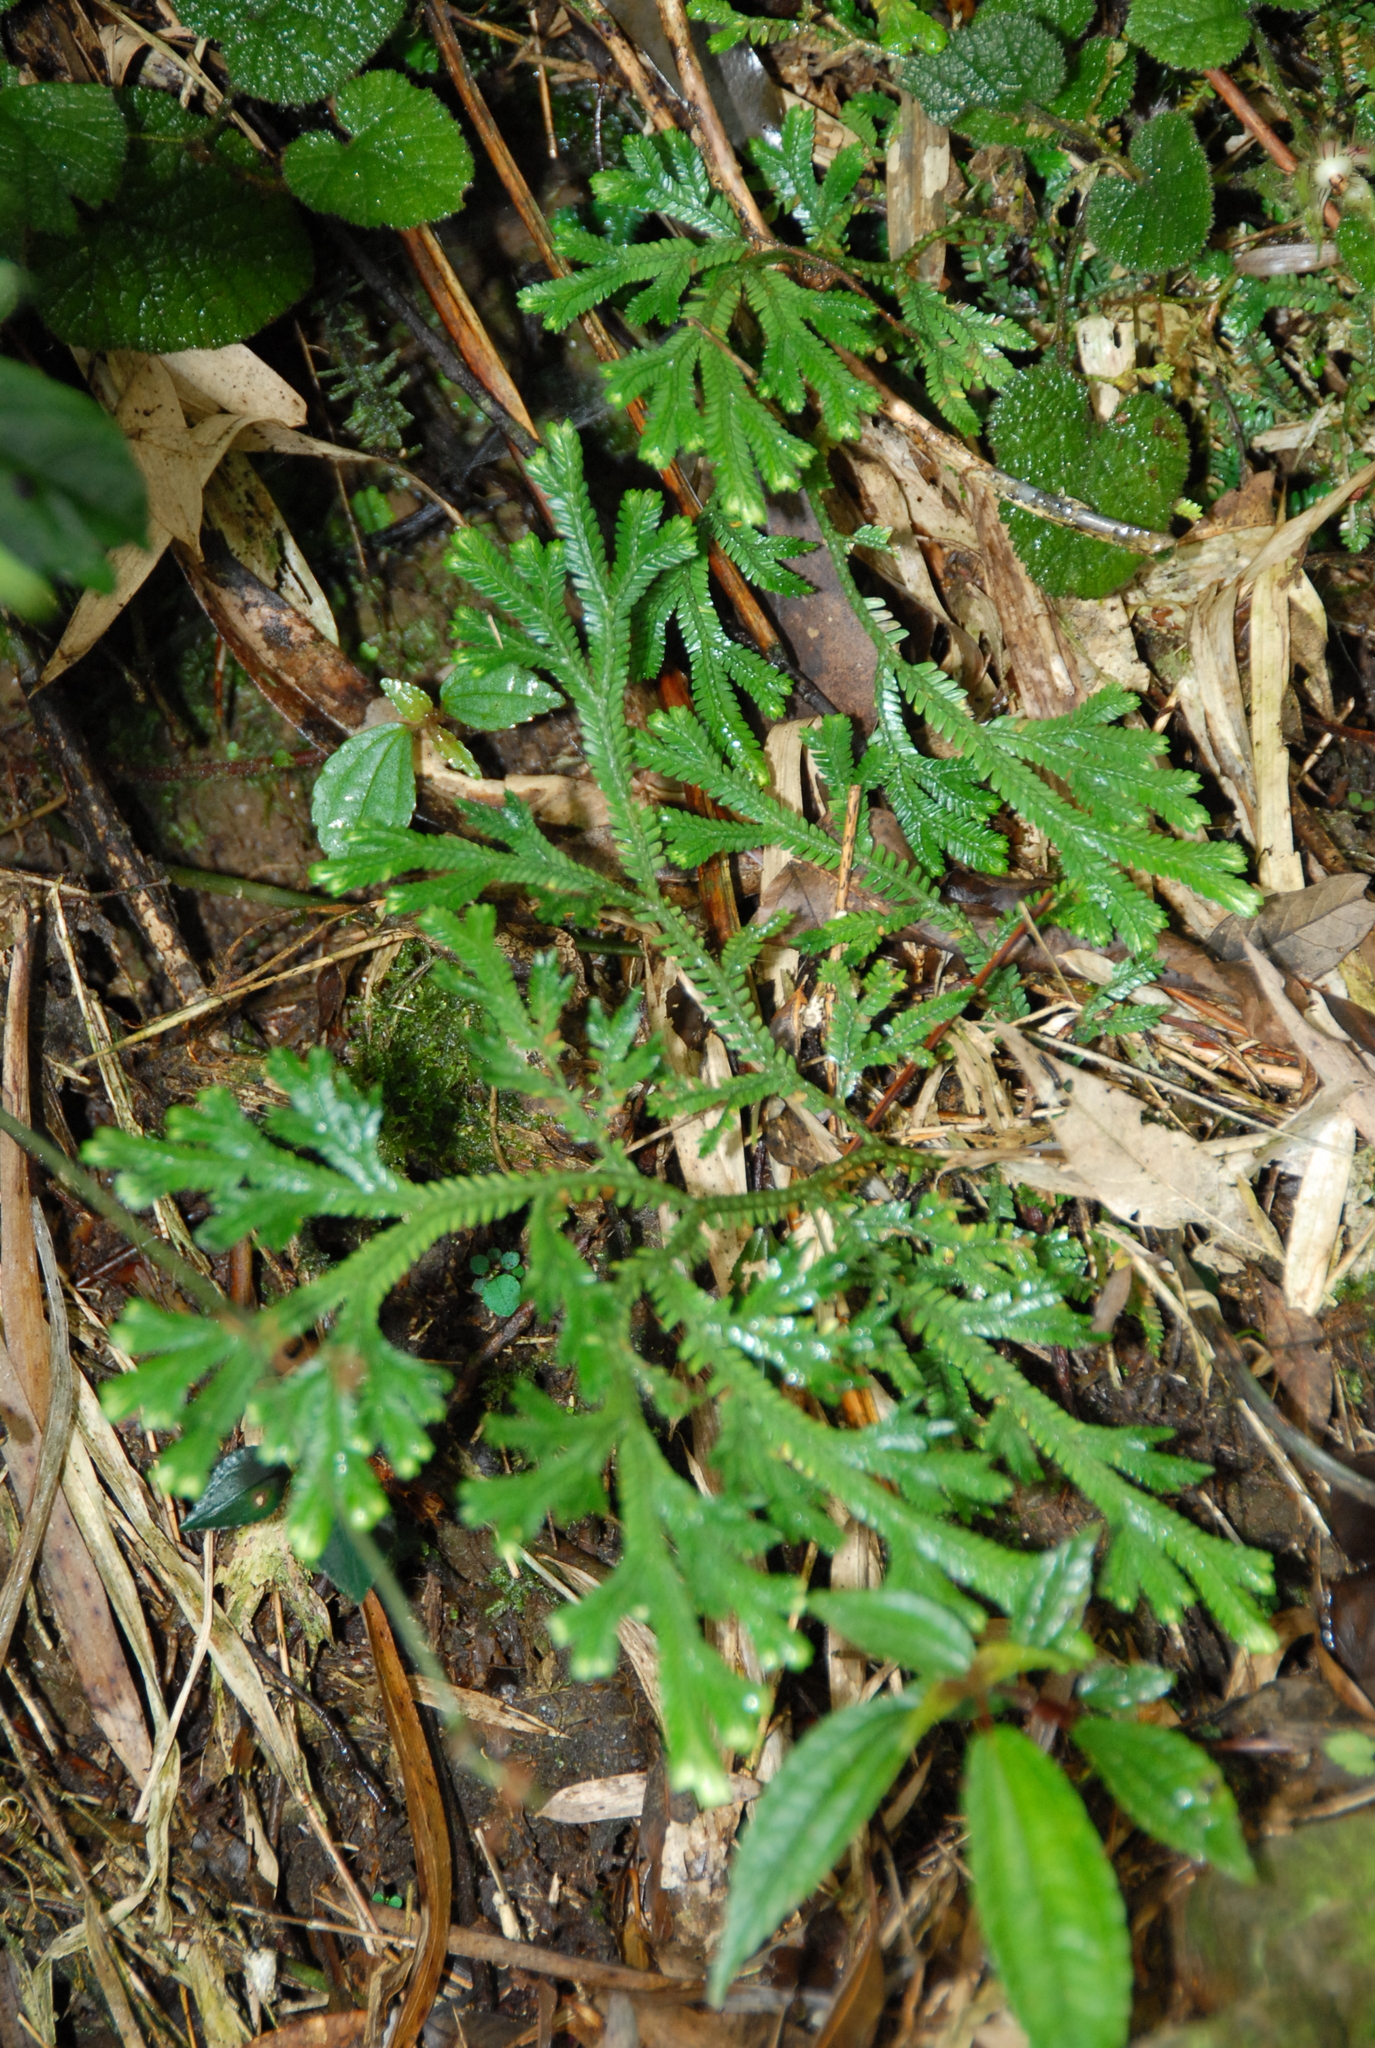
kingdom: Plantae
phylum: Tracheophyta
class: Lycopodiopsida
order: Selaginellales
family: Selaginellaceae
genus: Selaginella
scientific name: Selaginella doederleinii
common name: Greater selaginella
